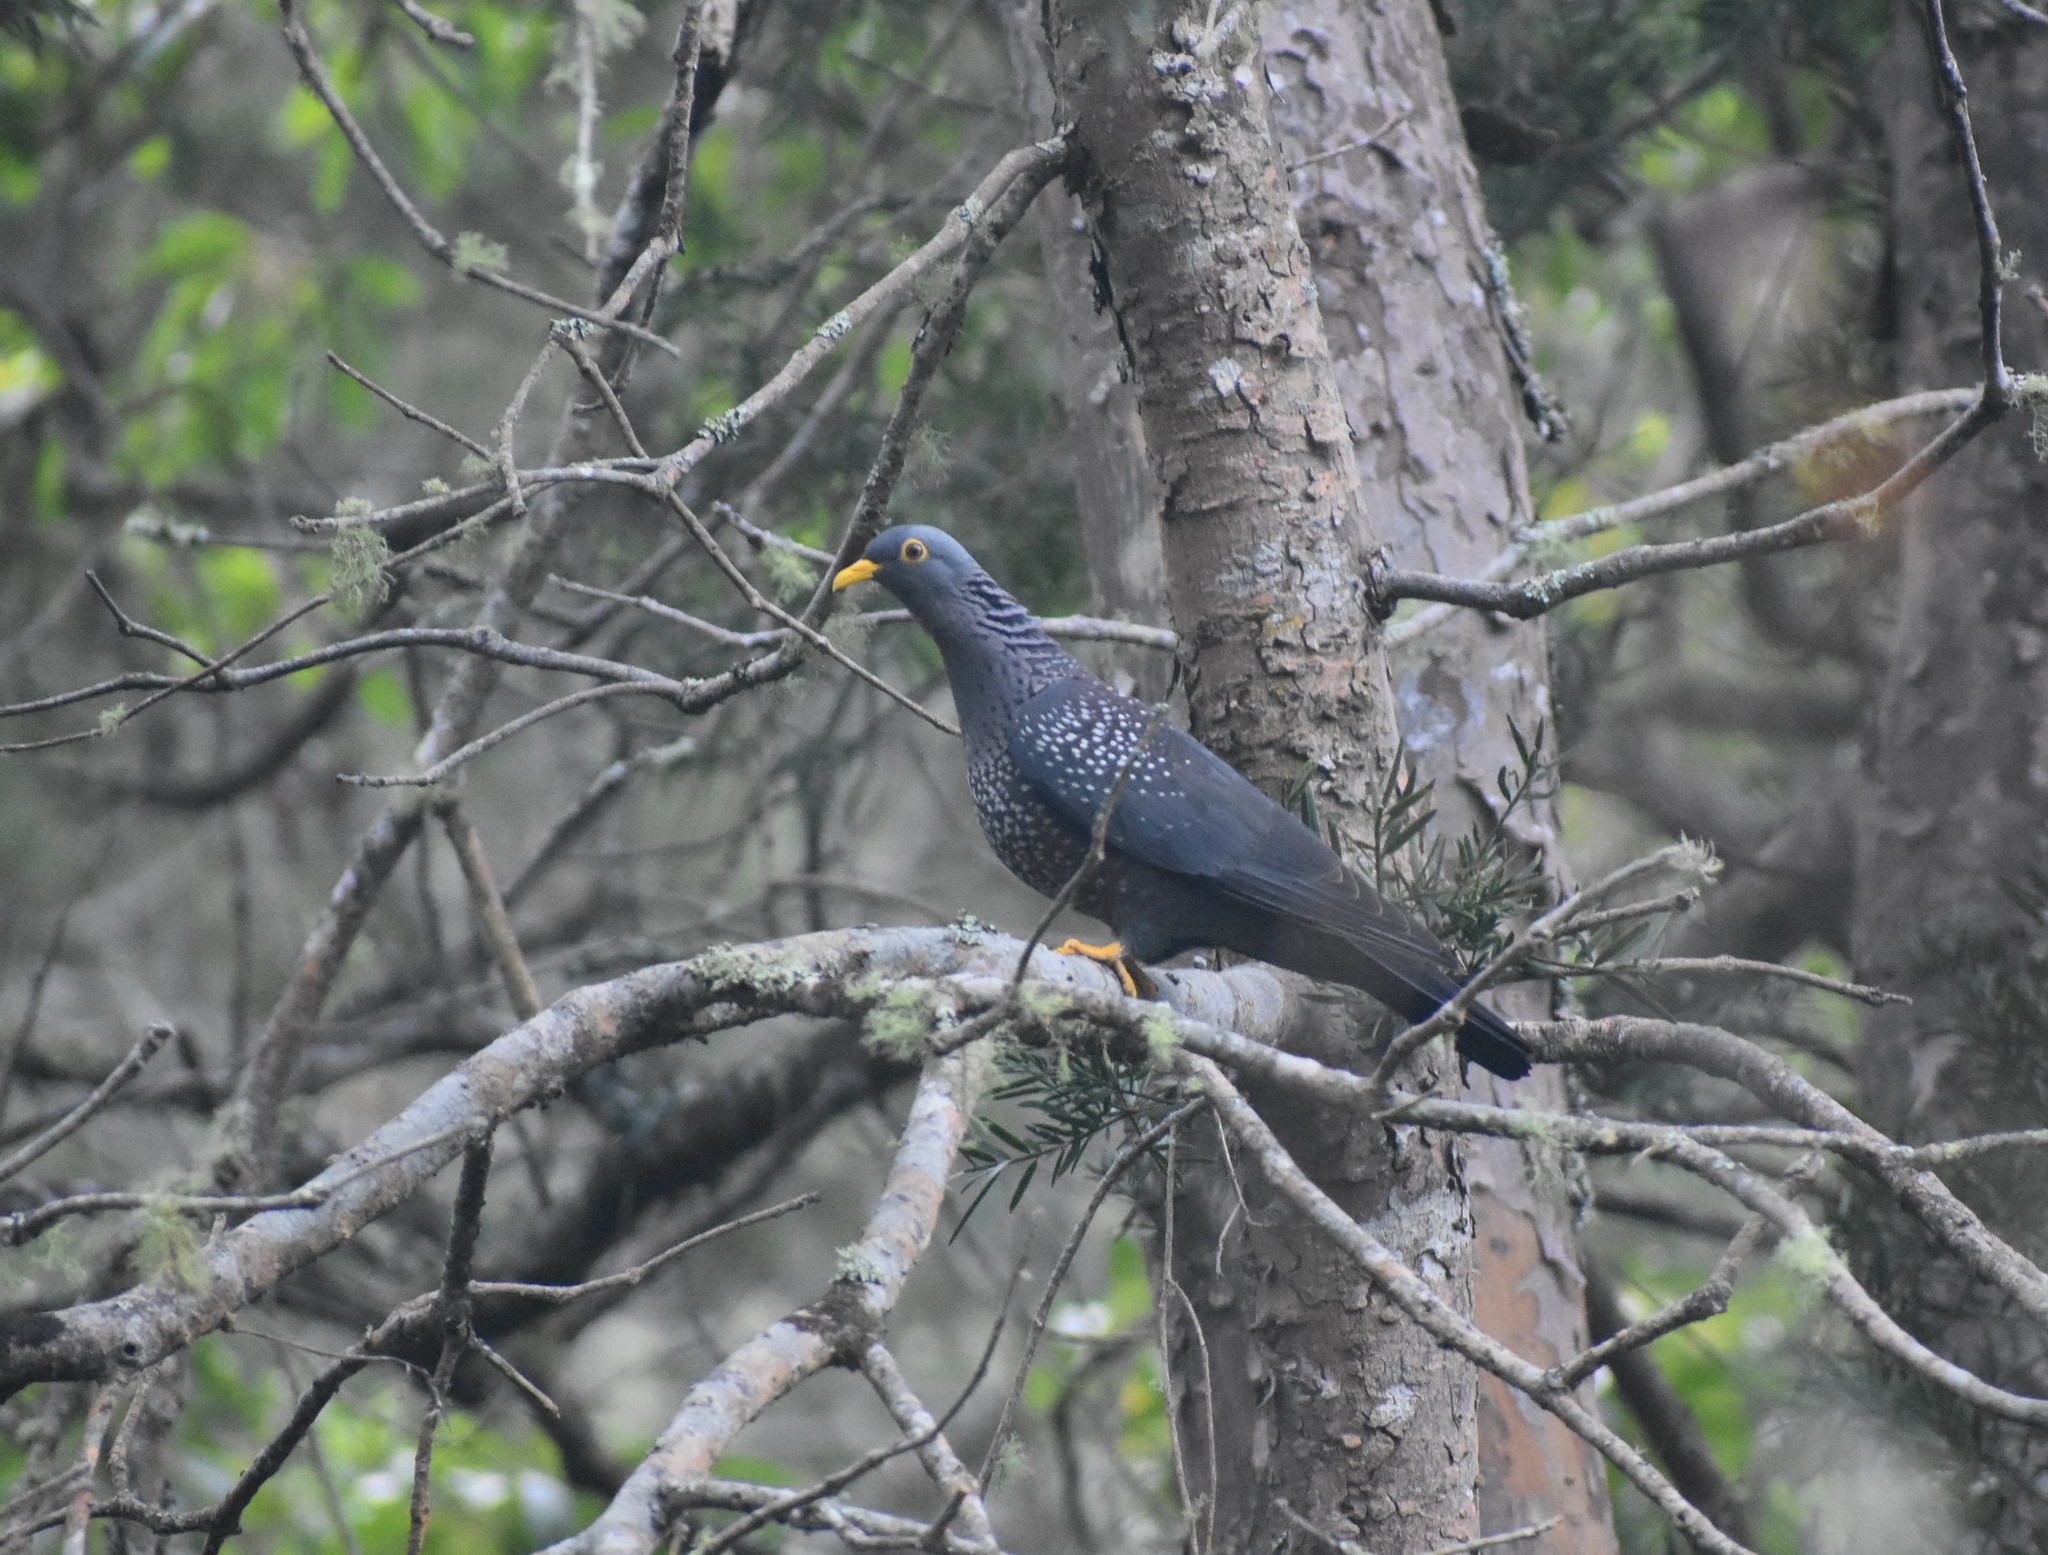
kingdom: Animalia
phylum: Chordata
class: Aves
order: Columbiformes
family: Columbidae
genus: Columba
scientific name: Columba arquatrix
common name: African olive pigeon
